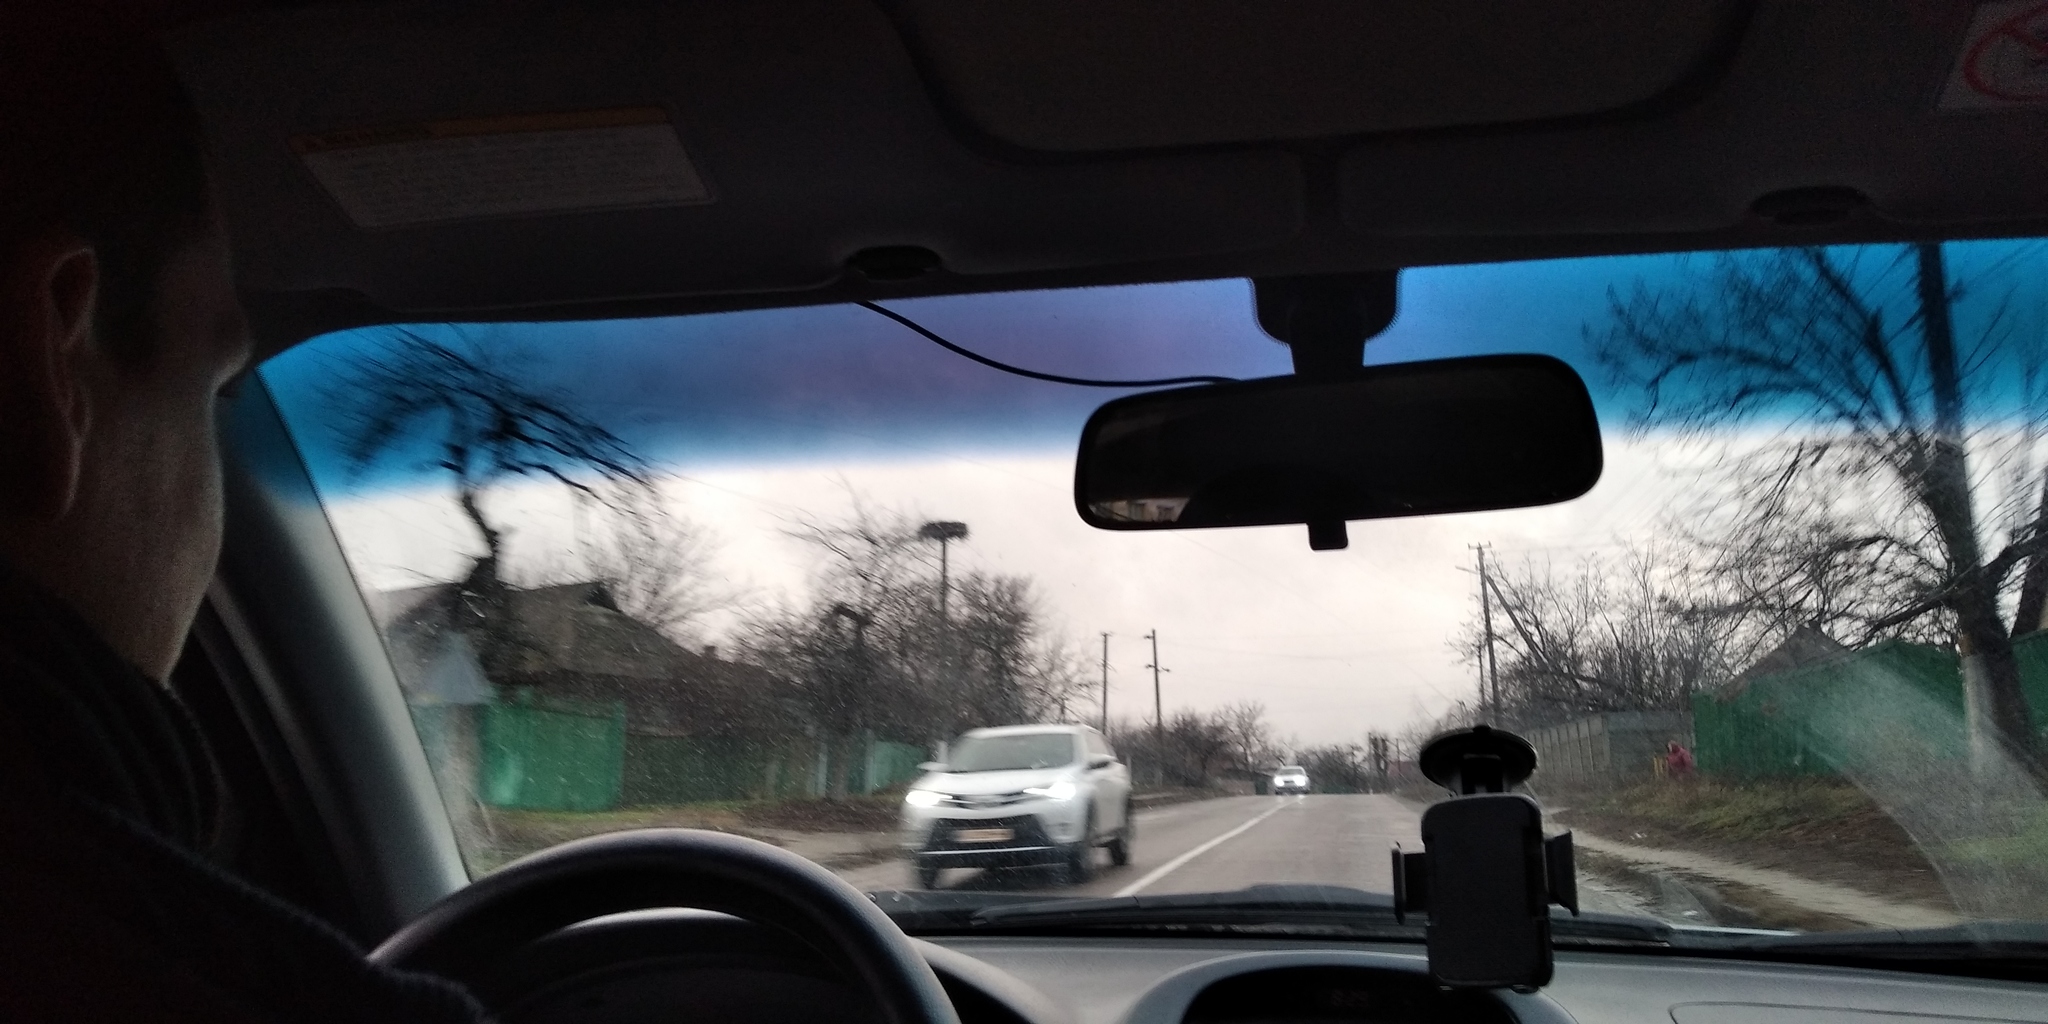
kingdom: Animalia
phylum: Chordata
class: Aves
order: Ciconiiformes
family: Ciconiidae
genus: Ciconia
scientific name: Ciconia ciconia
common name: White stork
